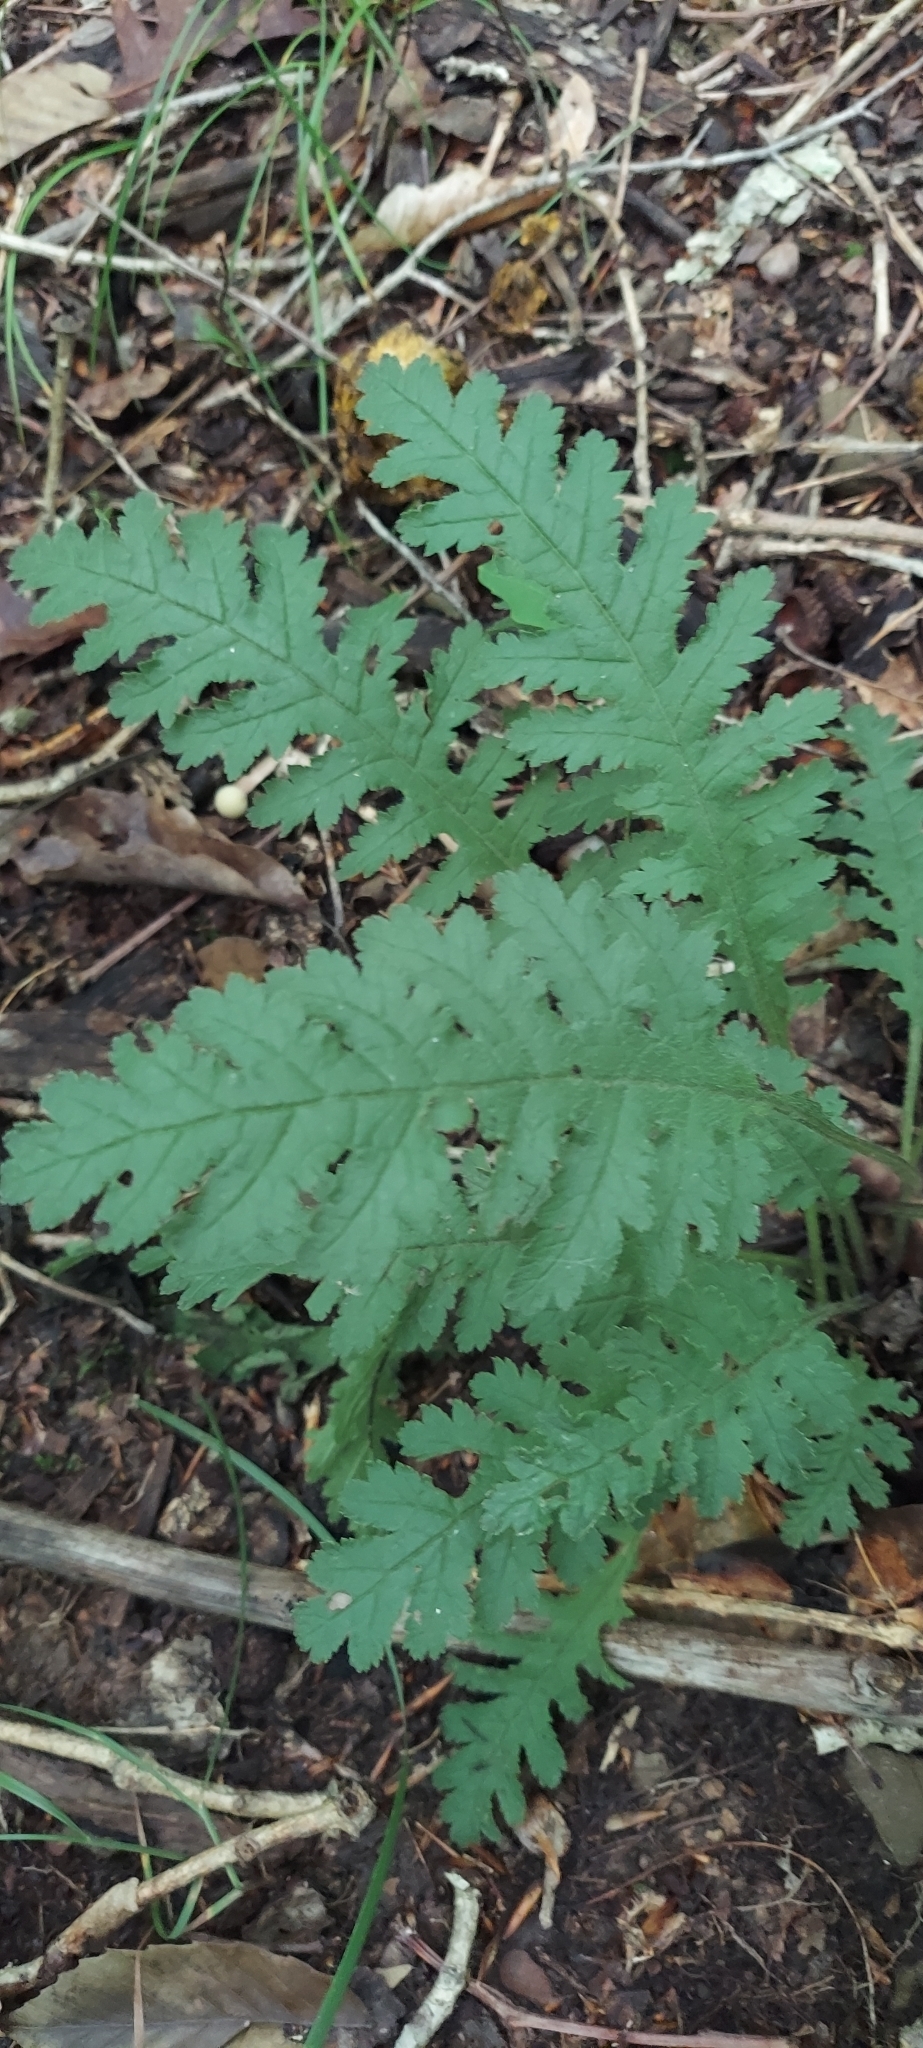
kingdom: Plantae
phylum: Tracheophyta
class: Magnoliopsida
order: Lamiales
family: Orobanchaceae
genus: Pedicularis
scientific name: Pedicularis canadensis
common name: Early lousewort
